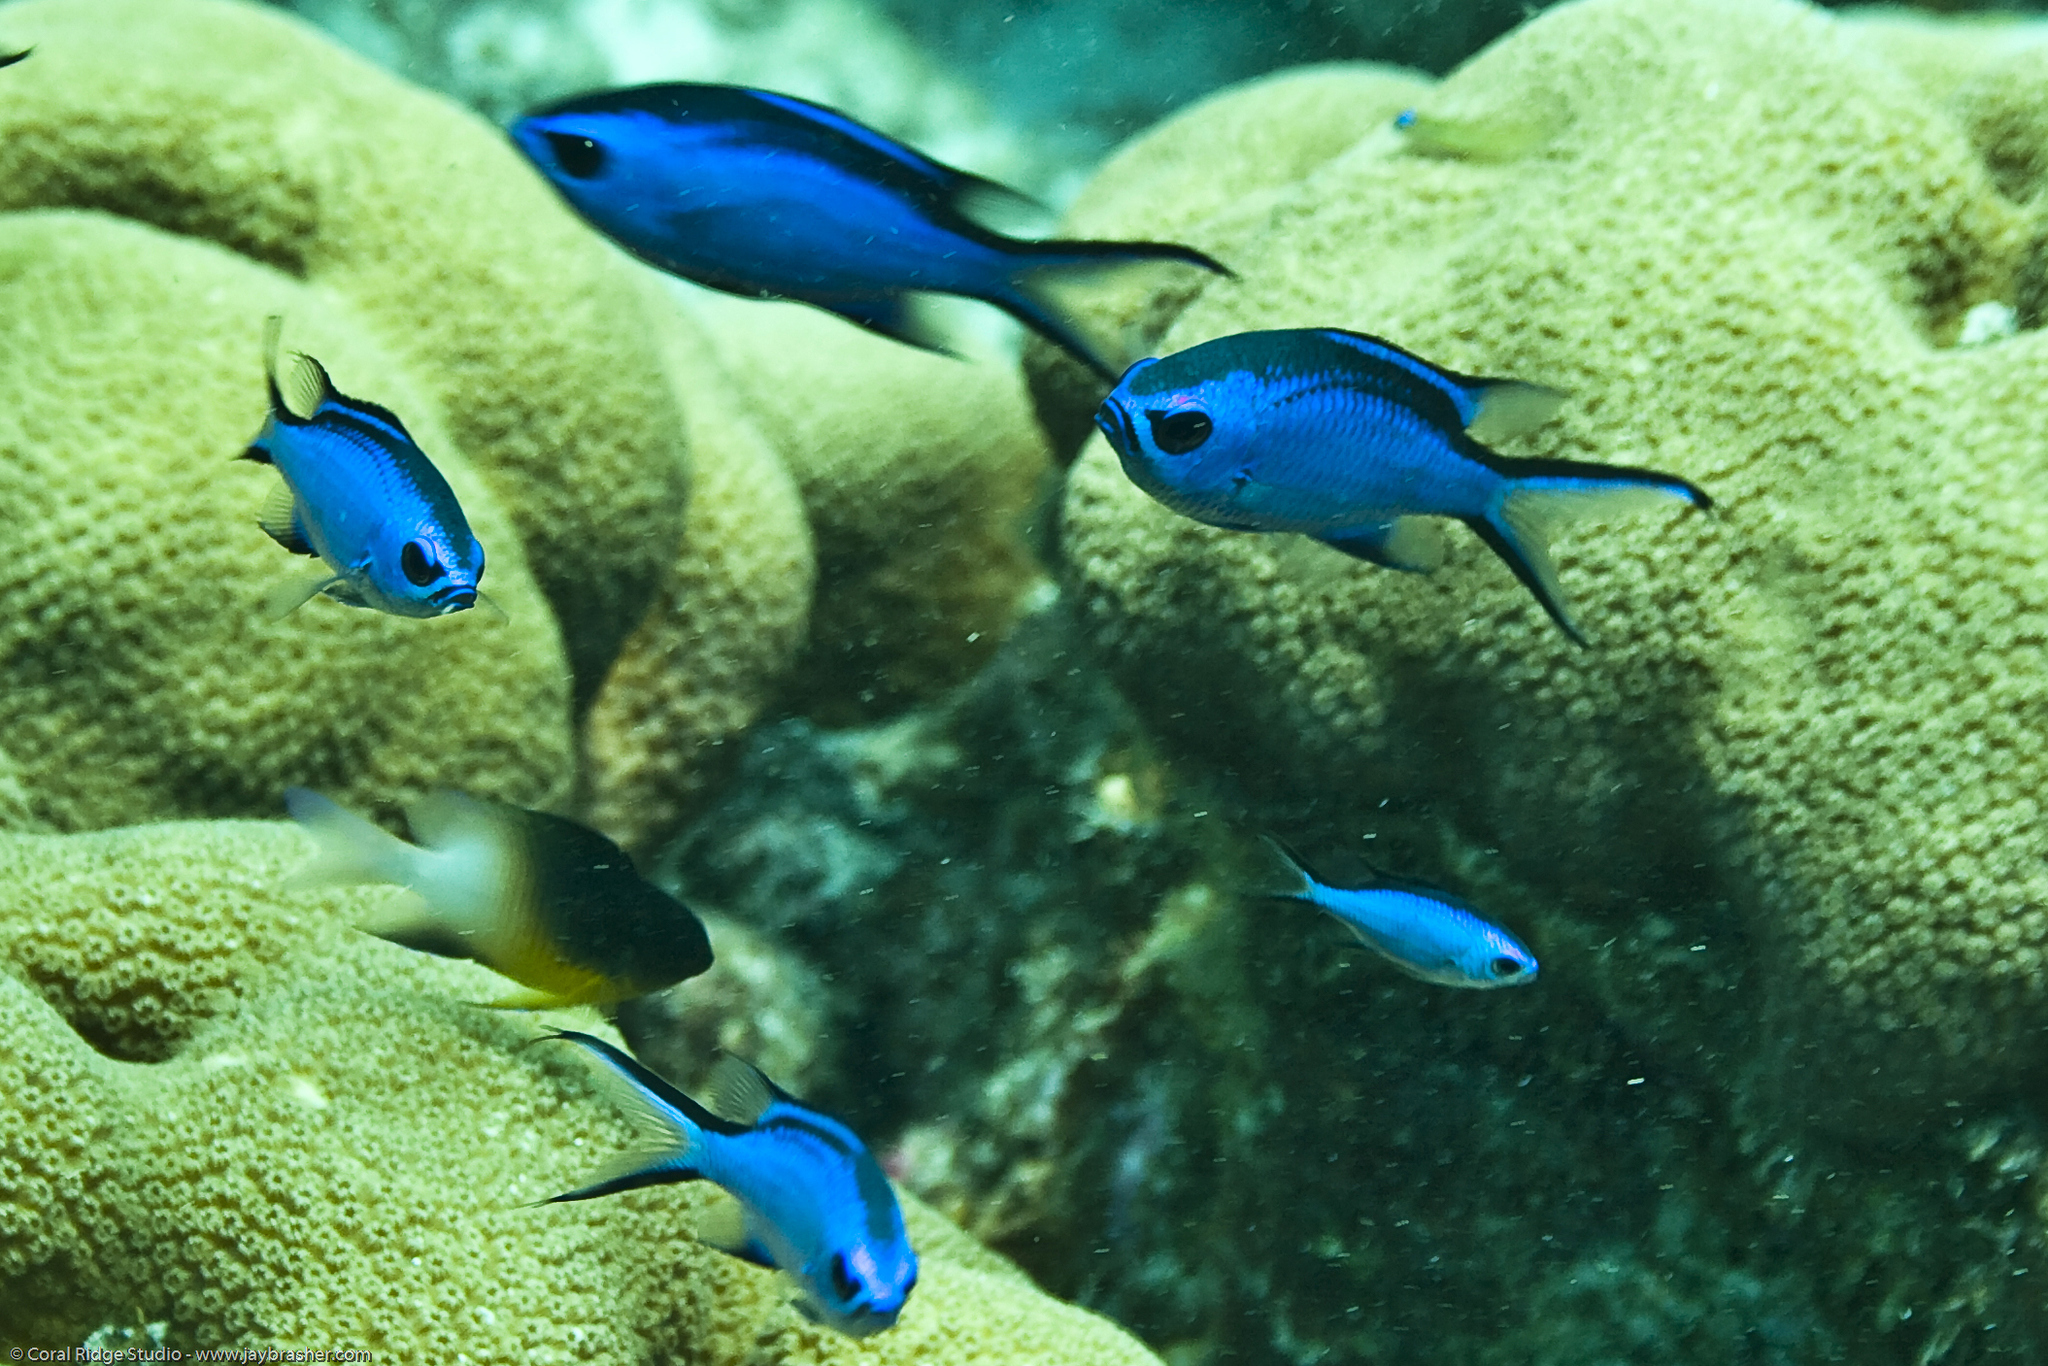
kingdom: Animalia
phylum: Chordata
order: Perciformes
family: Pomacentridae
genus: Chromis
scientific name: Chromis cyanea
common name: Blue chromis
